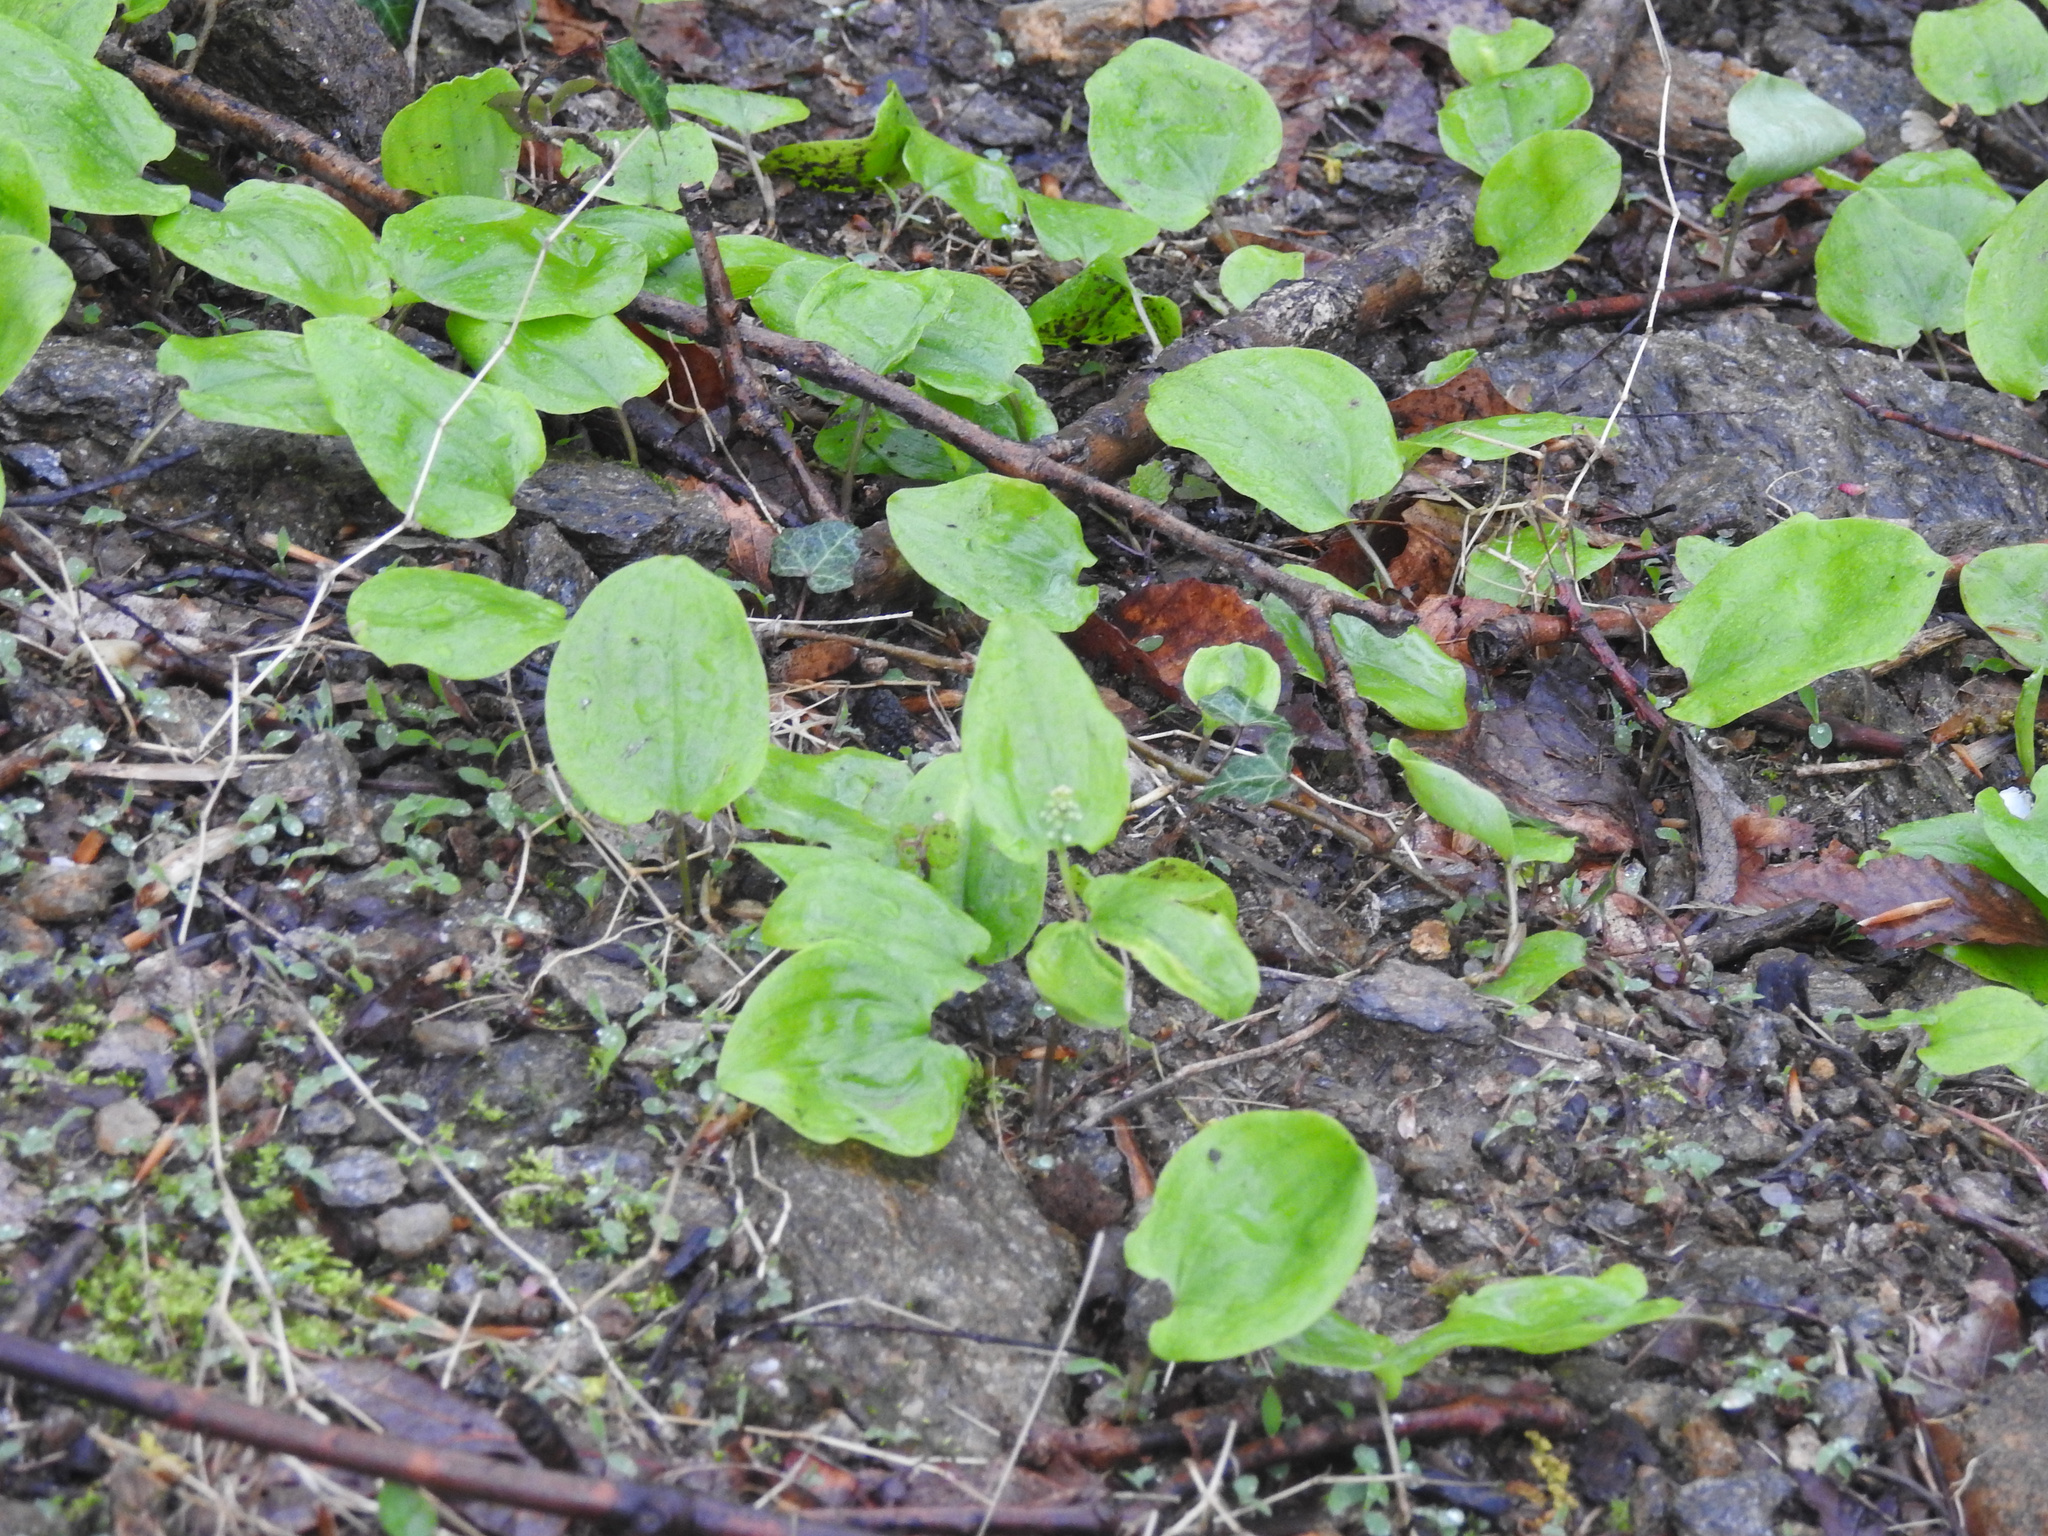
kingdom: Plantae
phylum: Tracheophyta
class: Liliopsida
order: Asparagales
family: Asparagaceae
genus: Maianthemum
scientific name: Maianthemum canadense
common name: False lily-of-the-valley
